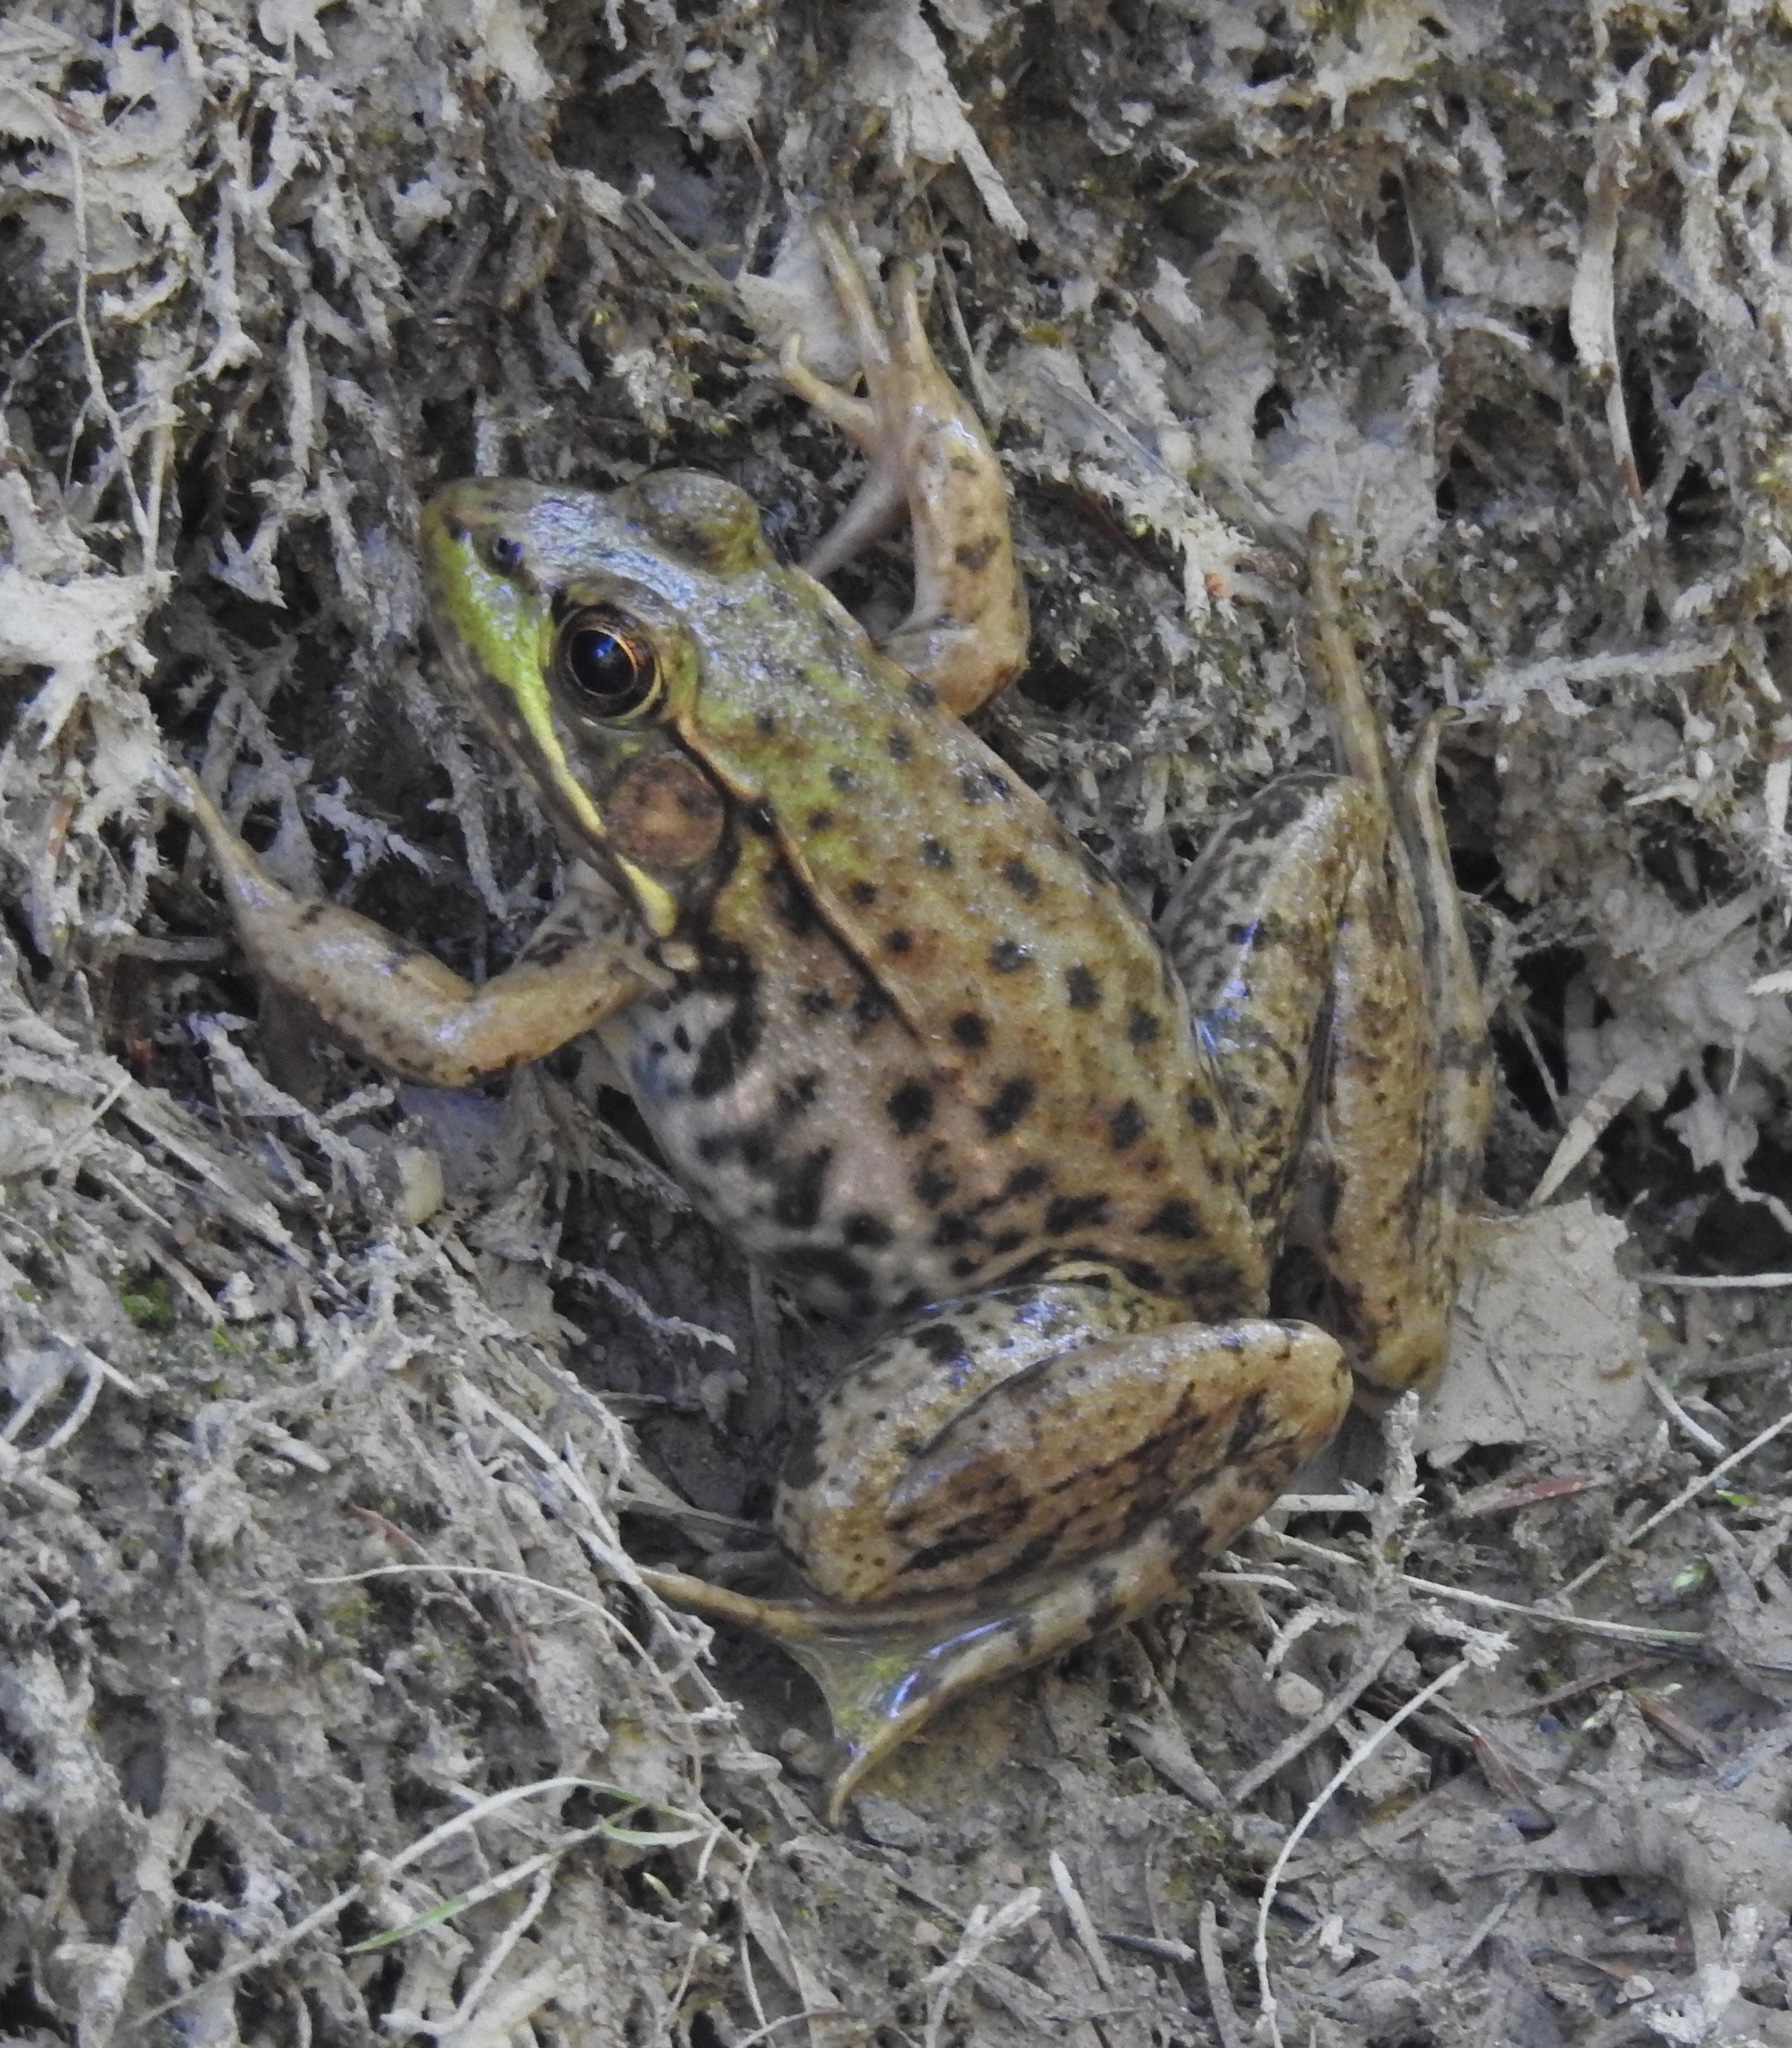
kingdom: Animalia
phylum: Chordata
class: Amphibia
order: Anura
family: Ranidae
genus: Lithobates
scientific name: Lithobates clamitans
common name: Green frog
